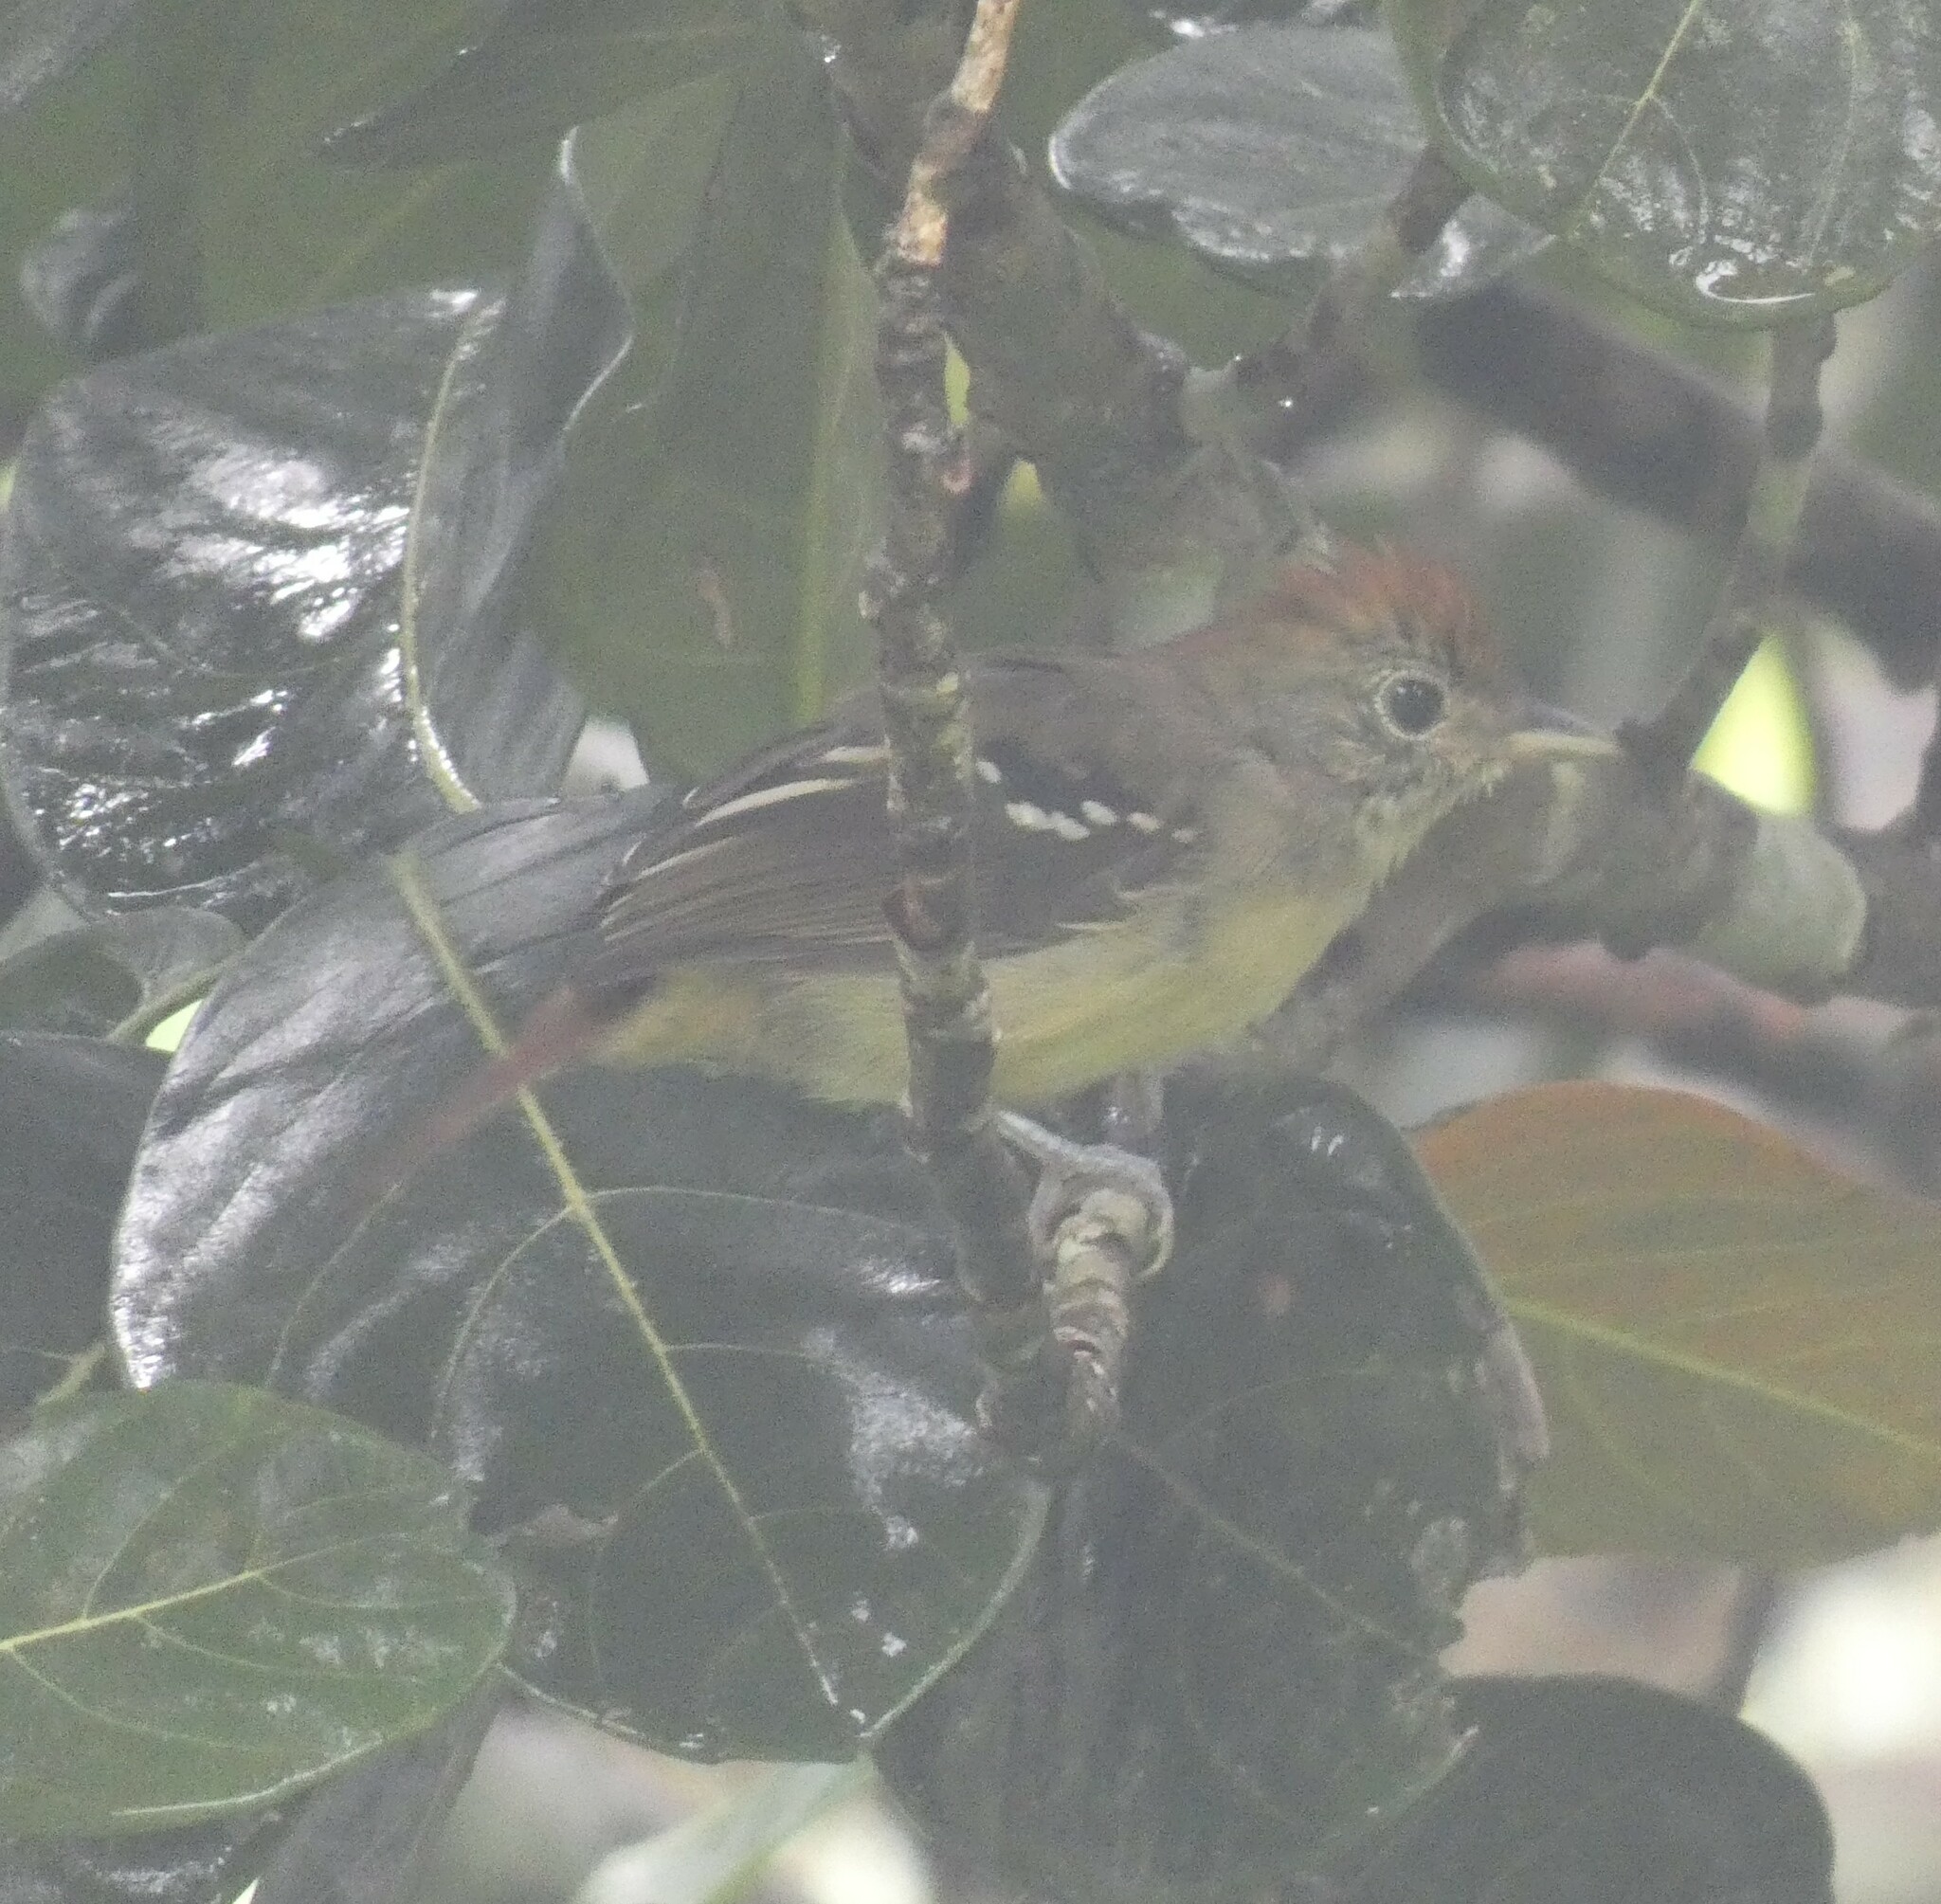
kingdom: Animalia
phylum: Chordata
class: Aves
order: Passeriformes
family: Thamnophilidae
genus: Thamnophilus
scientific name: Thamnophilus ambiguus
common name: Sooretama slaty antshrike
